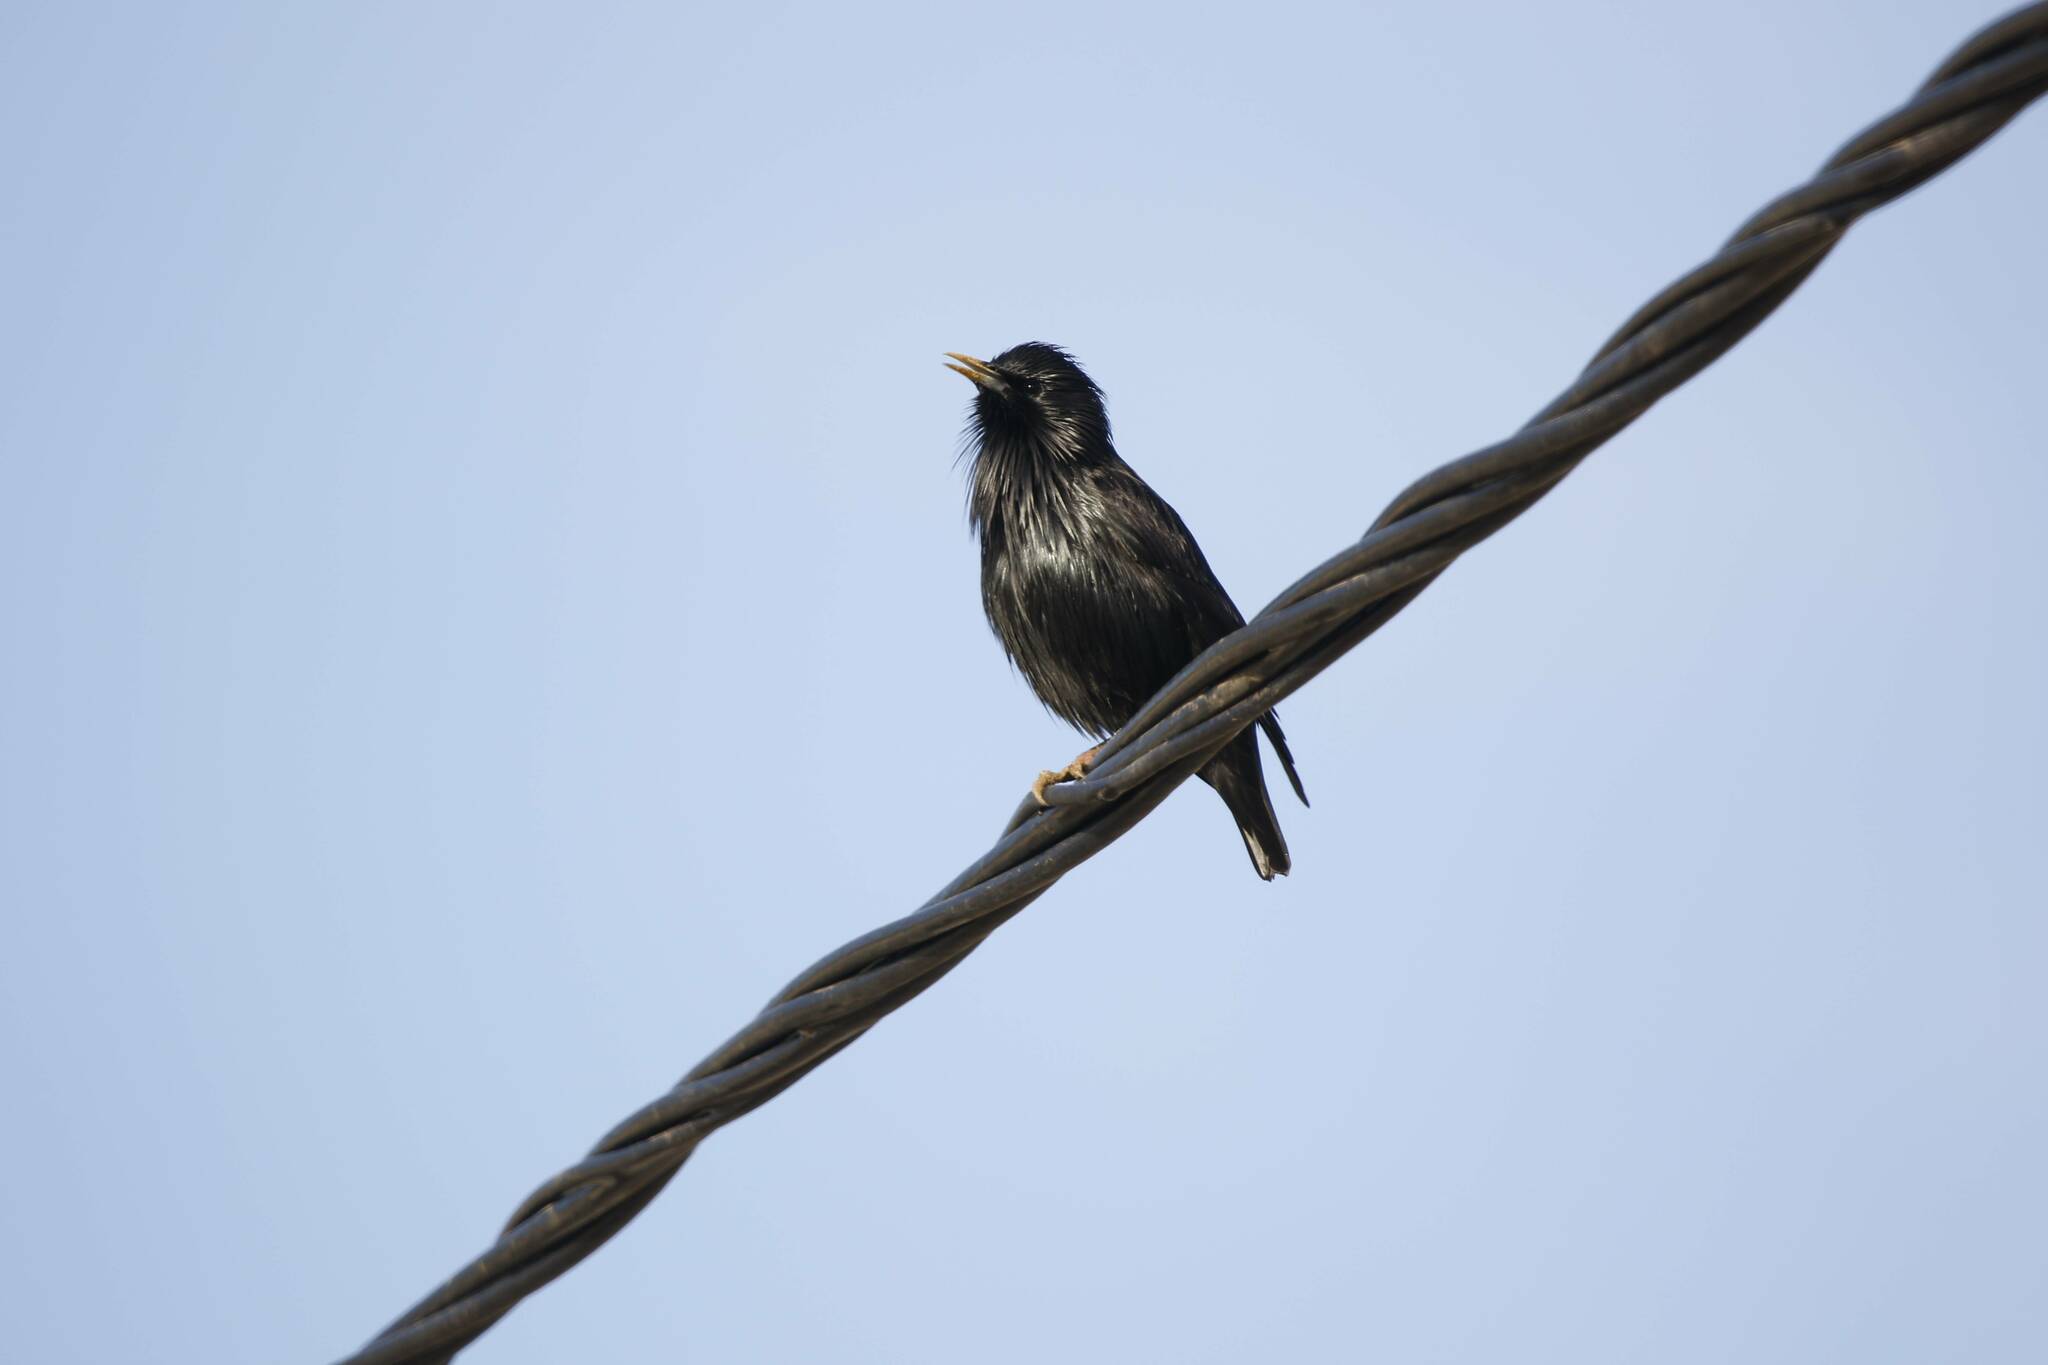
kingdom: Animalia
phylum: Chordata
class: Aves
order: Passeriformes
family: Sturnidae
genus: Sturnus
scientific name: Sturnus unicolor
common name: Spotless starling
